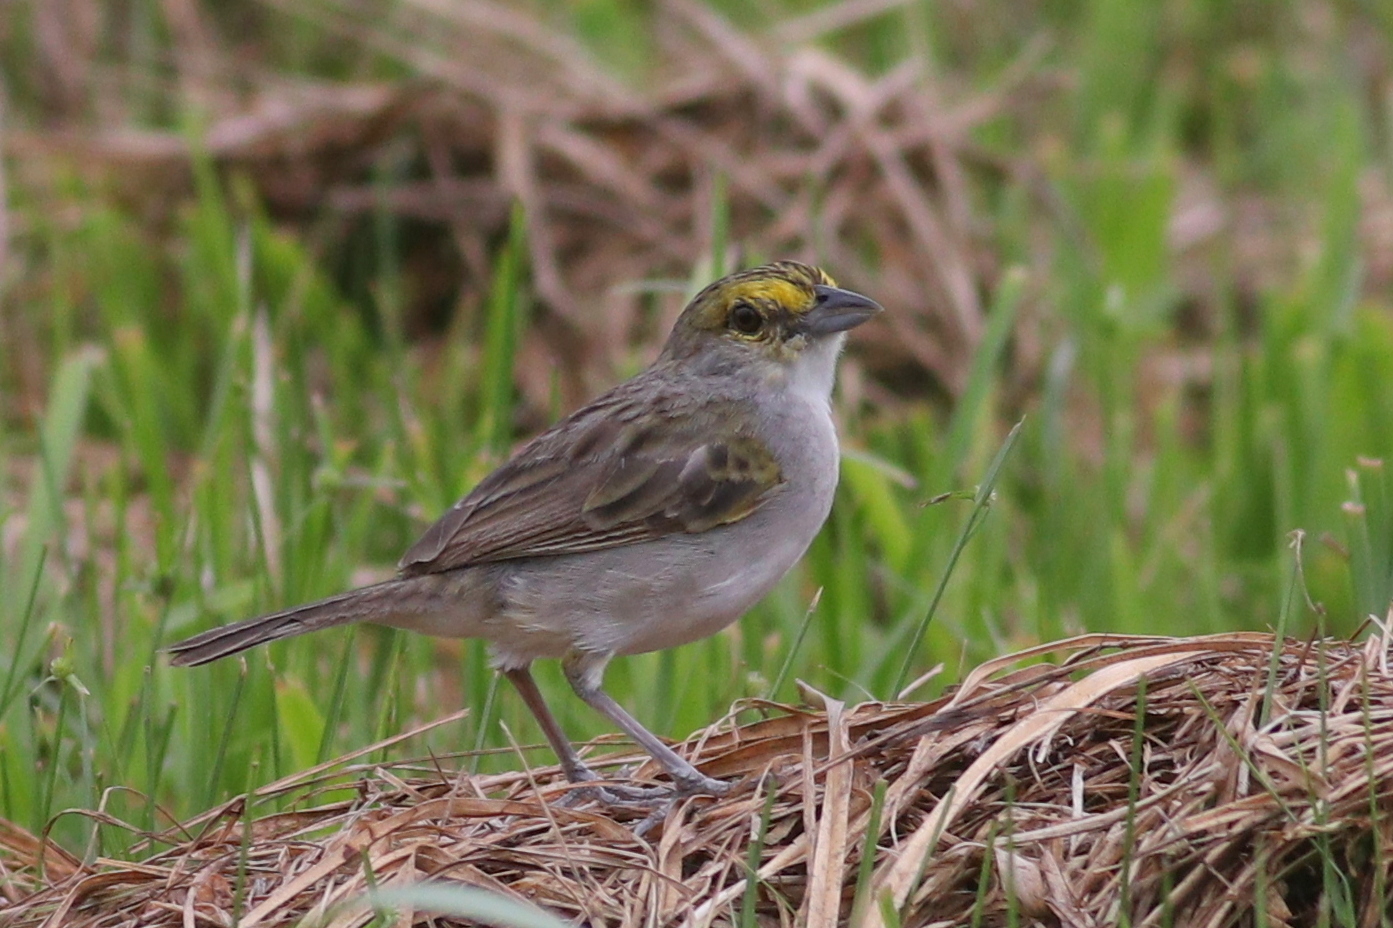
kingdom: Animalia
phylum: Chordata
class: Aves
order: Passeriformes
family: Passerellidae
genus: Ammodramus
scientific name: Ammodramus aurifrons
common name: Yellow-browed sparrow
